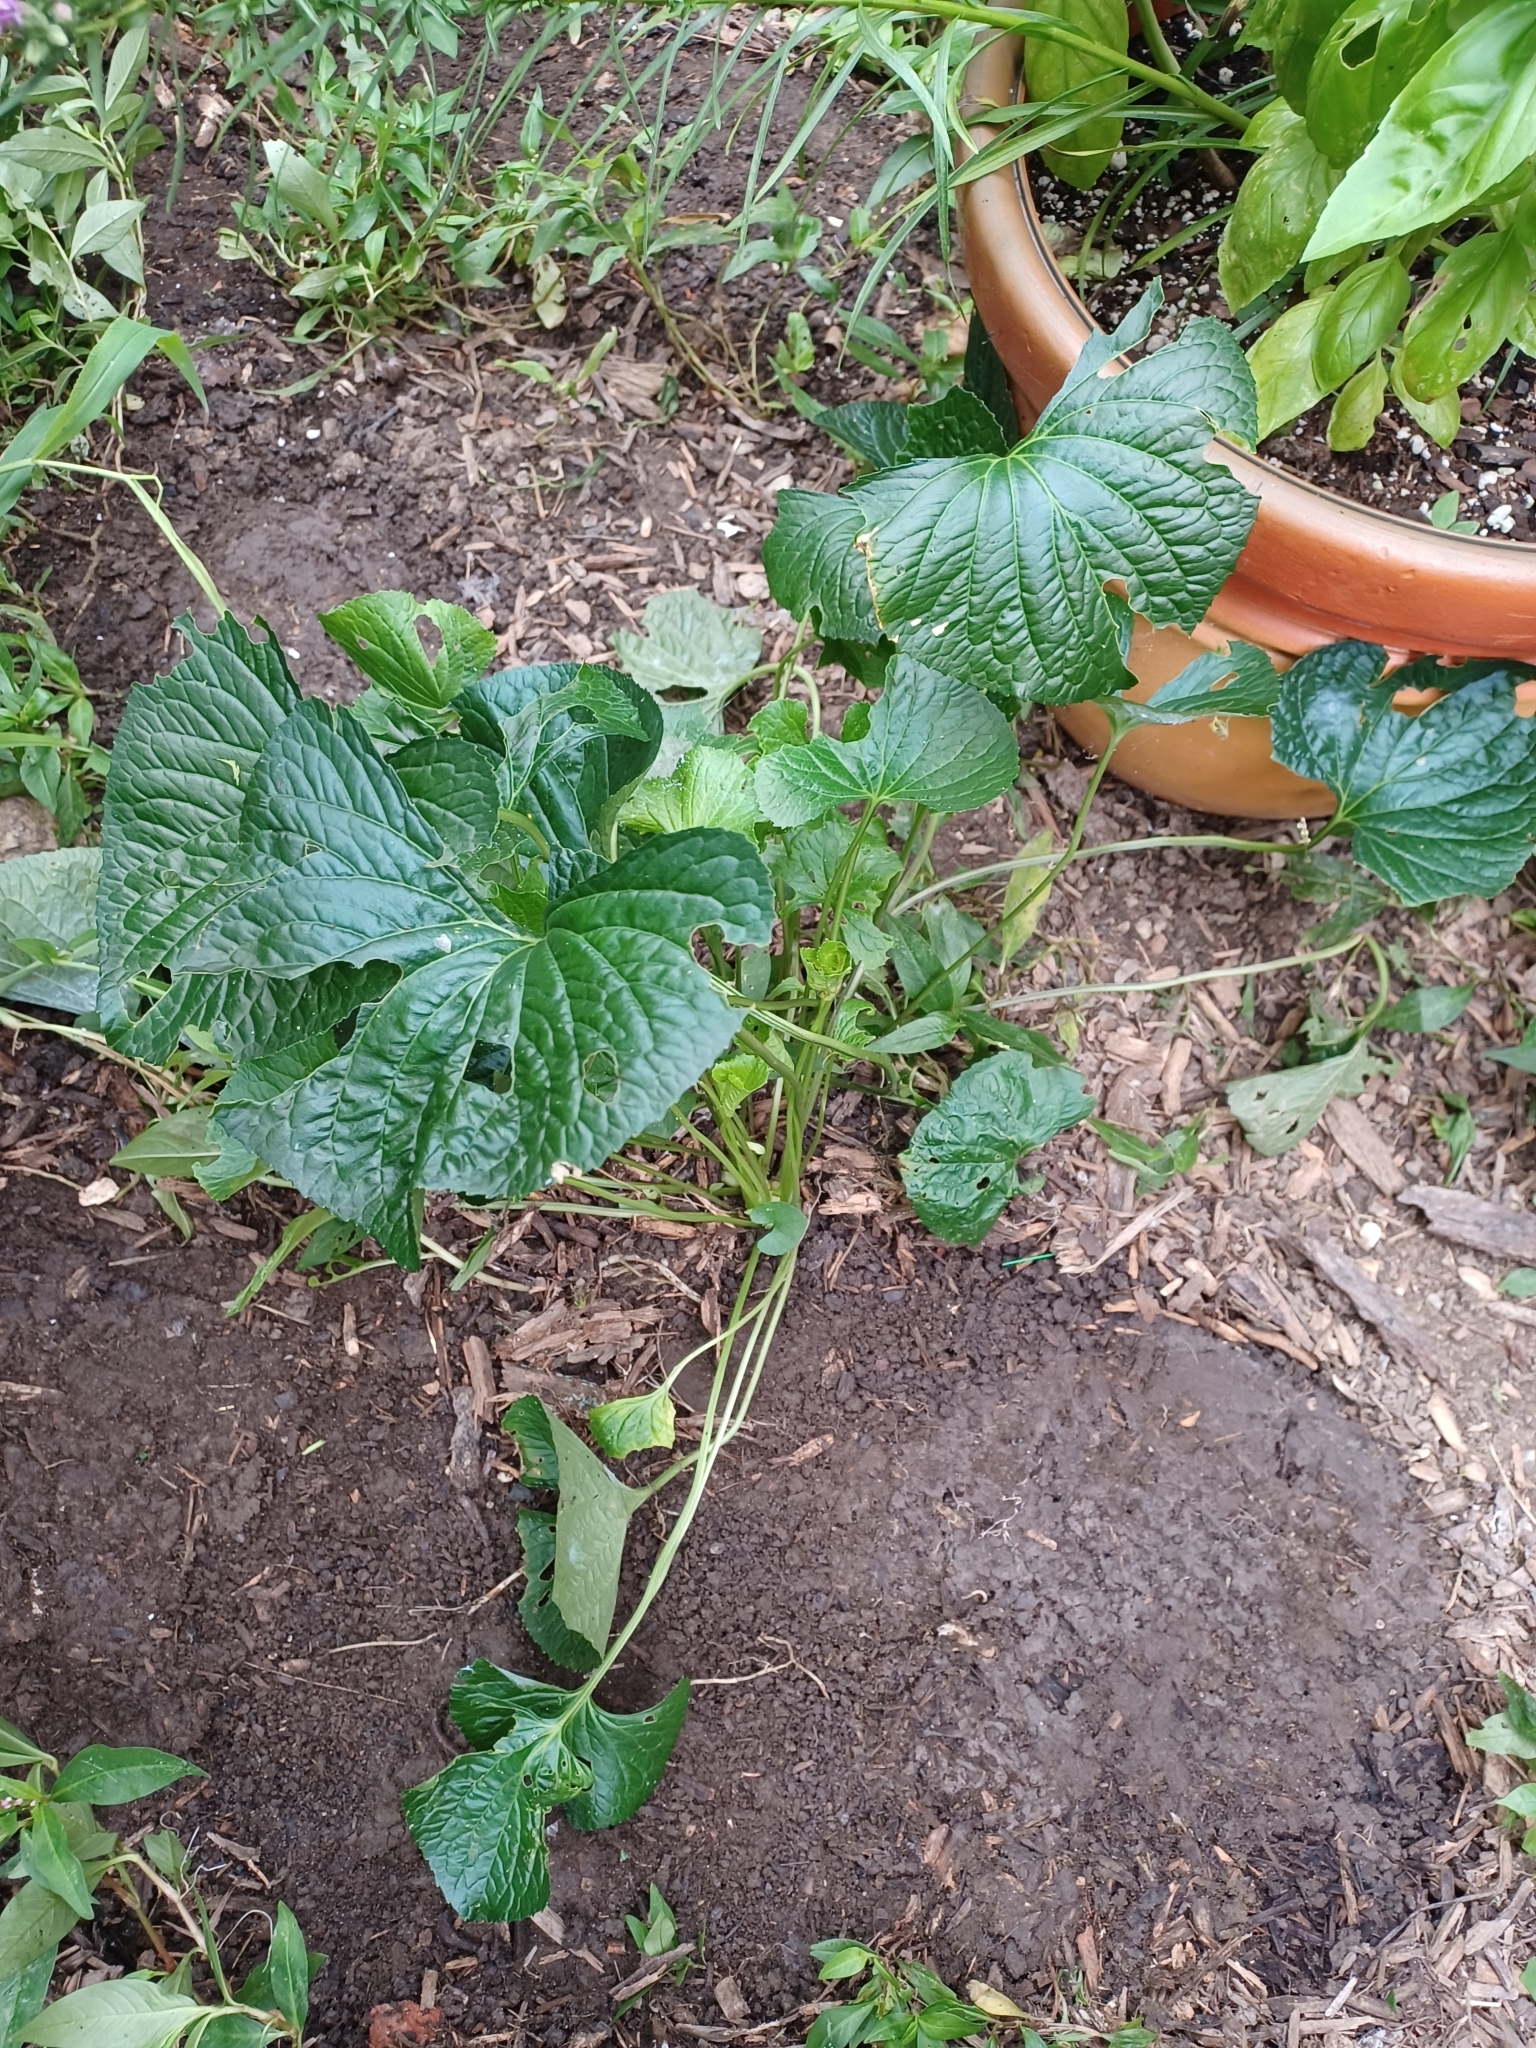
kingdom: Plantae
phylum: Tracheophyta
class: Magnoliopsida
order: Malpighiales
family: Violaceae
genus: Viola
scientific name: Viola sororia
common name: Dooryard violet
